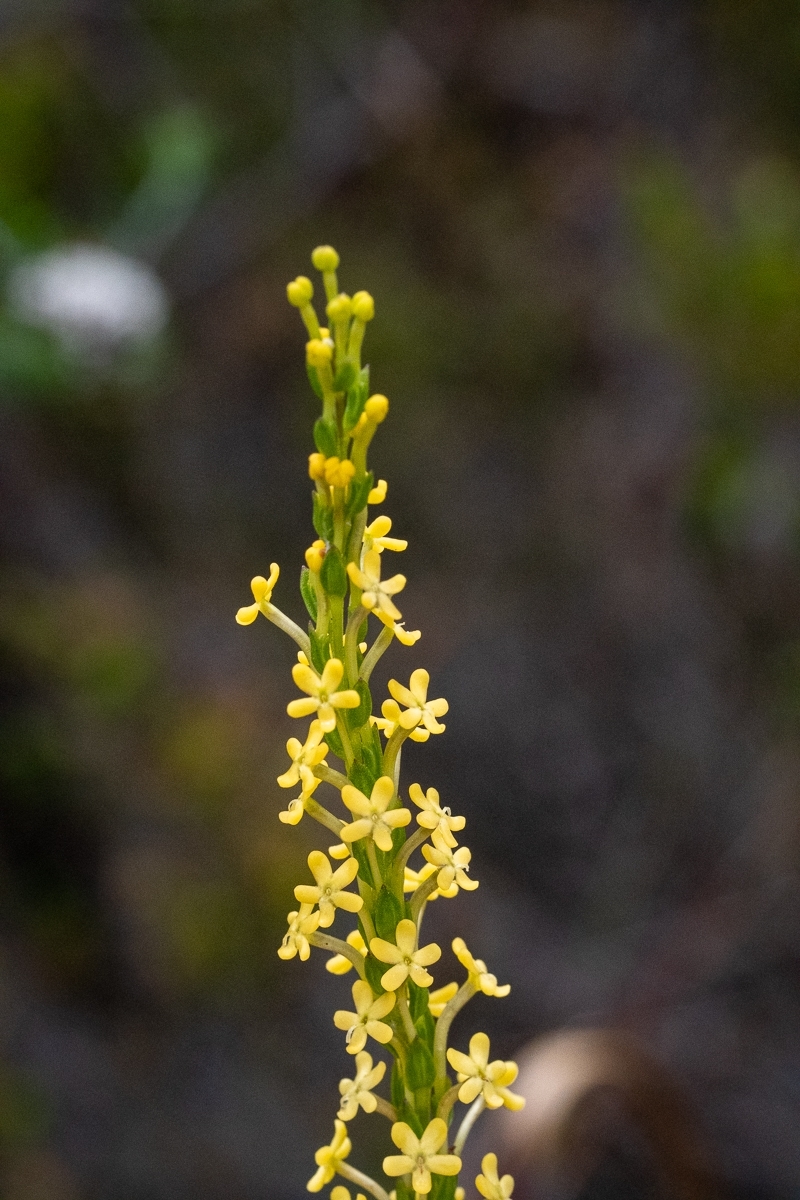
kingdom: Plantae
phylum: Tracheophyta
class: Magnoliopsida
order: Lamiales
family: Scrophulariaceae
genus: Microdon
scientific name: Microdon dubius
